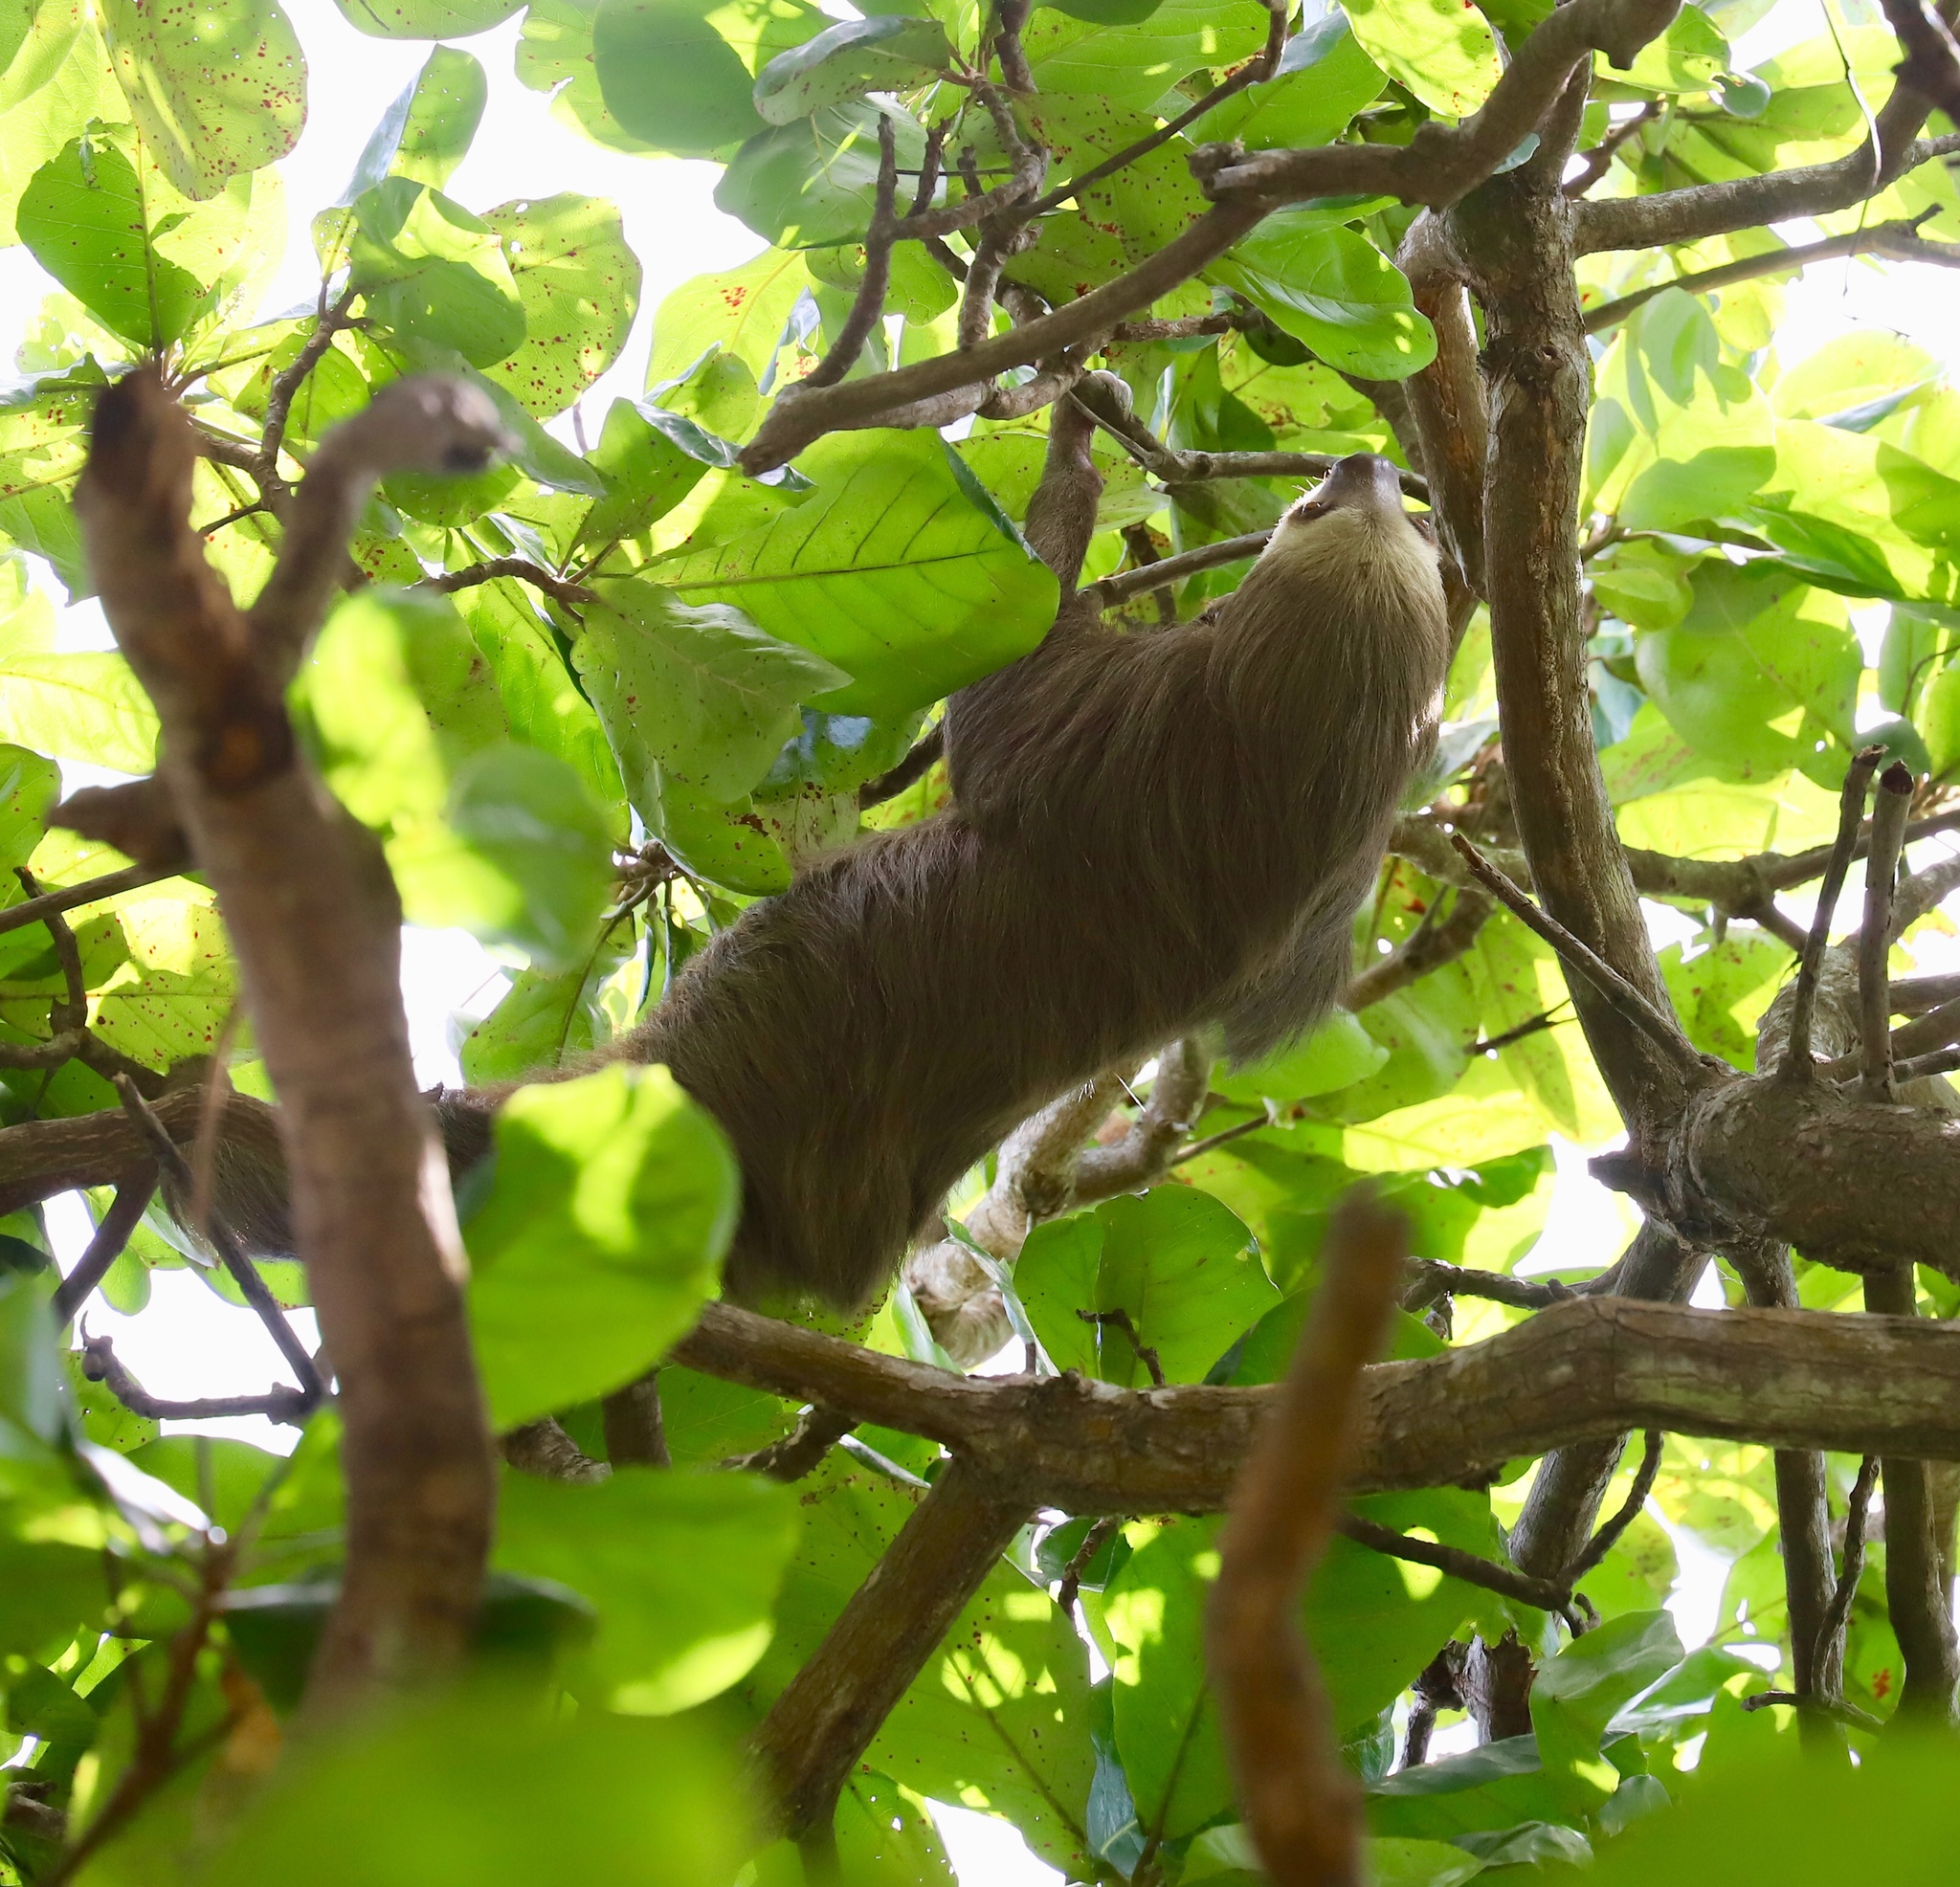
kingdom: Animalia
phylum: Chordata
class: Mammalia
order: Pilosa
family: Megalonychidae
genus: Choloepus
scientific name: Choloepus hoffmanni
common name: Hoffmann's two-toed sloth
